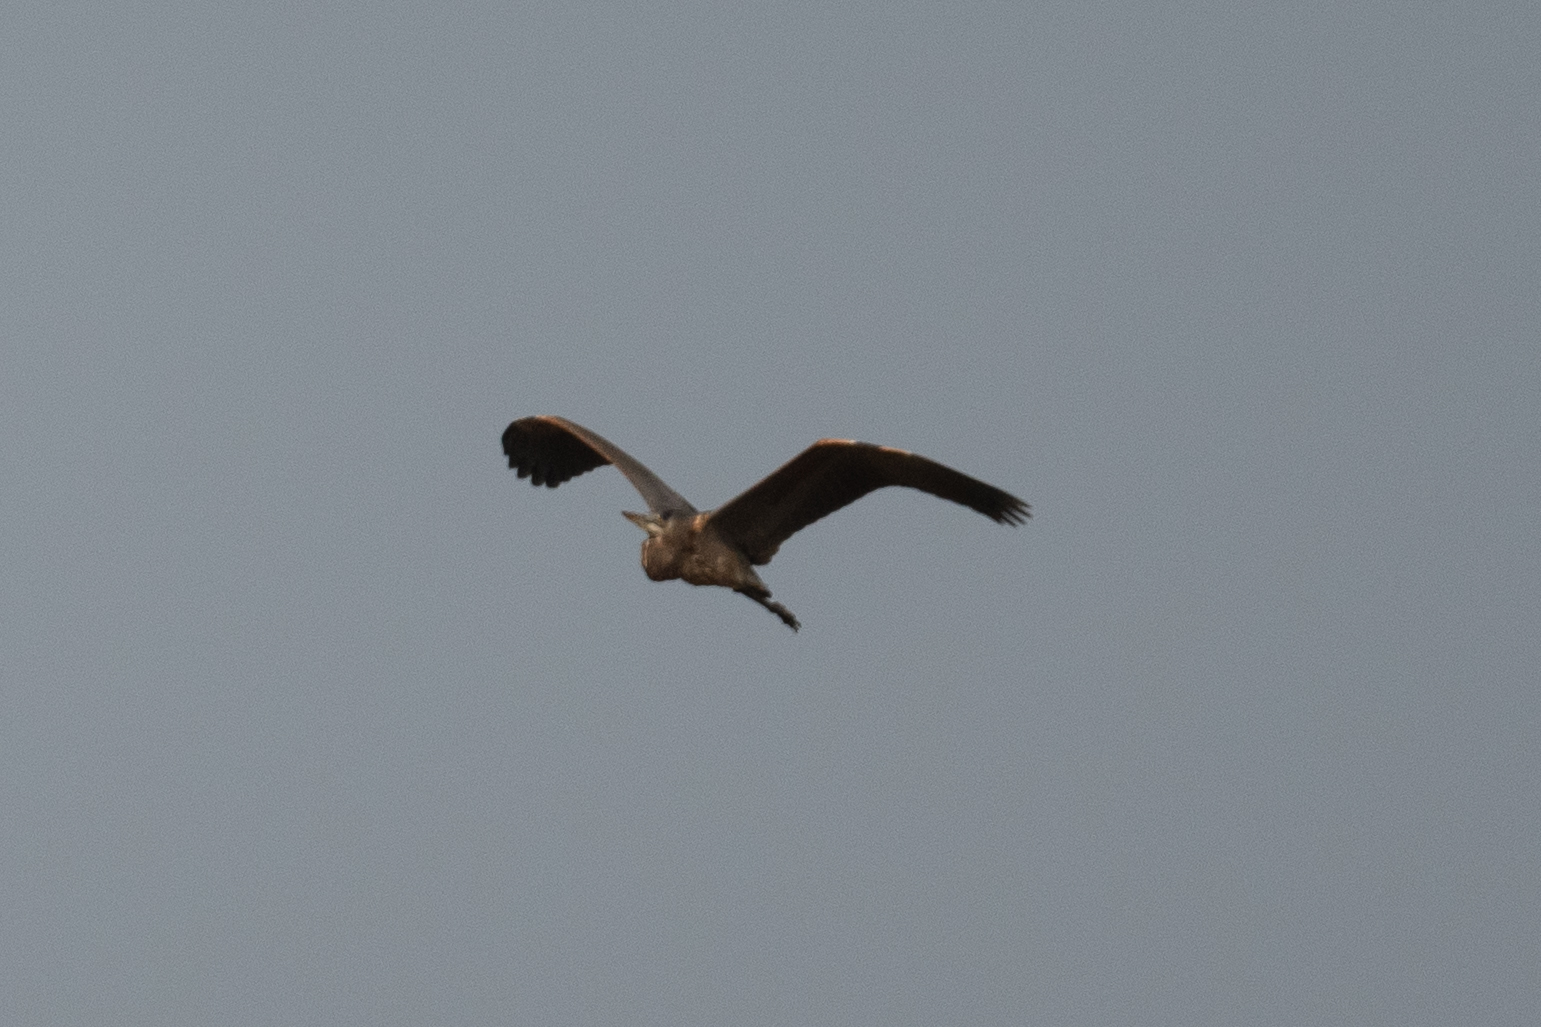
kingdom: Animalia
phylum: Chordata
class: Aves
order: Pelecaniformes
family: Ardeidae
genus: Ardea
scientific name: Ardea herodias
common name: Great blue heron
